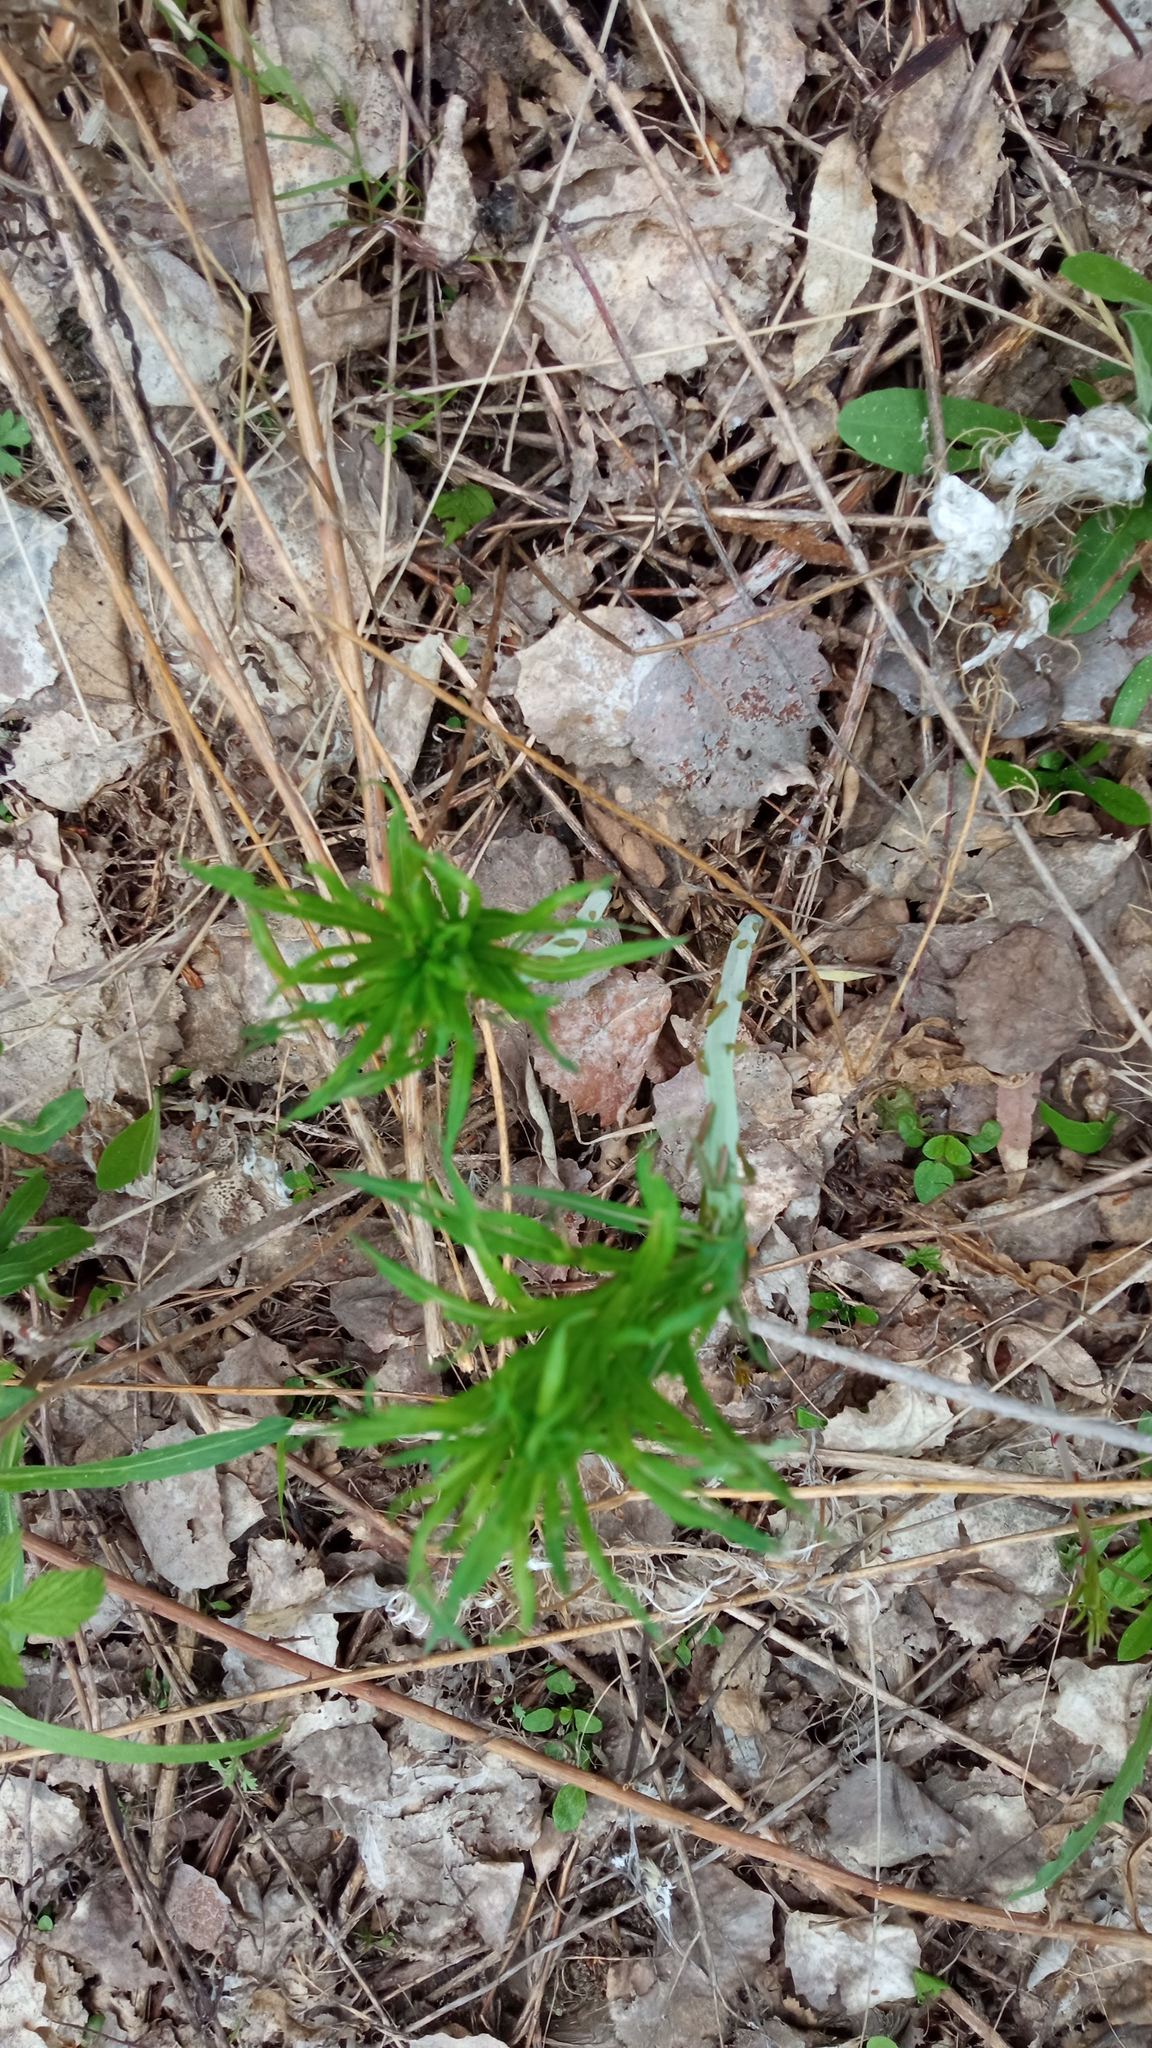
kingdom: Plantae
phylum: Tracheophyta
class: Magnoliopsida
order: Myrtales
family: Onagraceae
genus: Chamaenerion
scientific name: Chamaenerion angustifolium
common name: Fireweed
